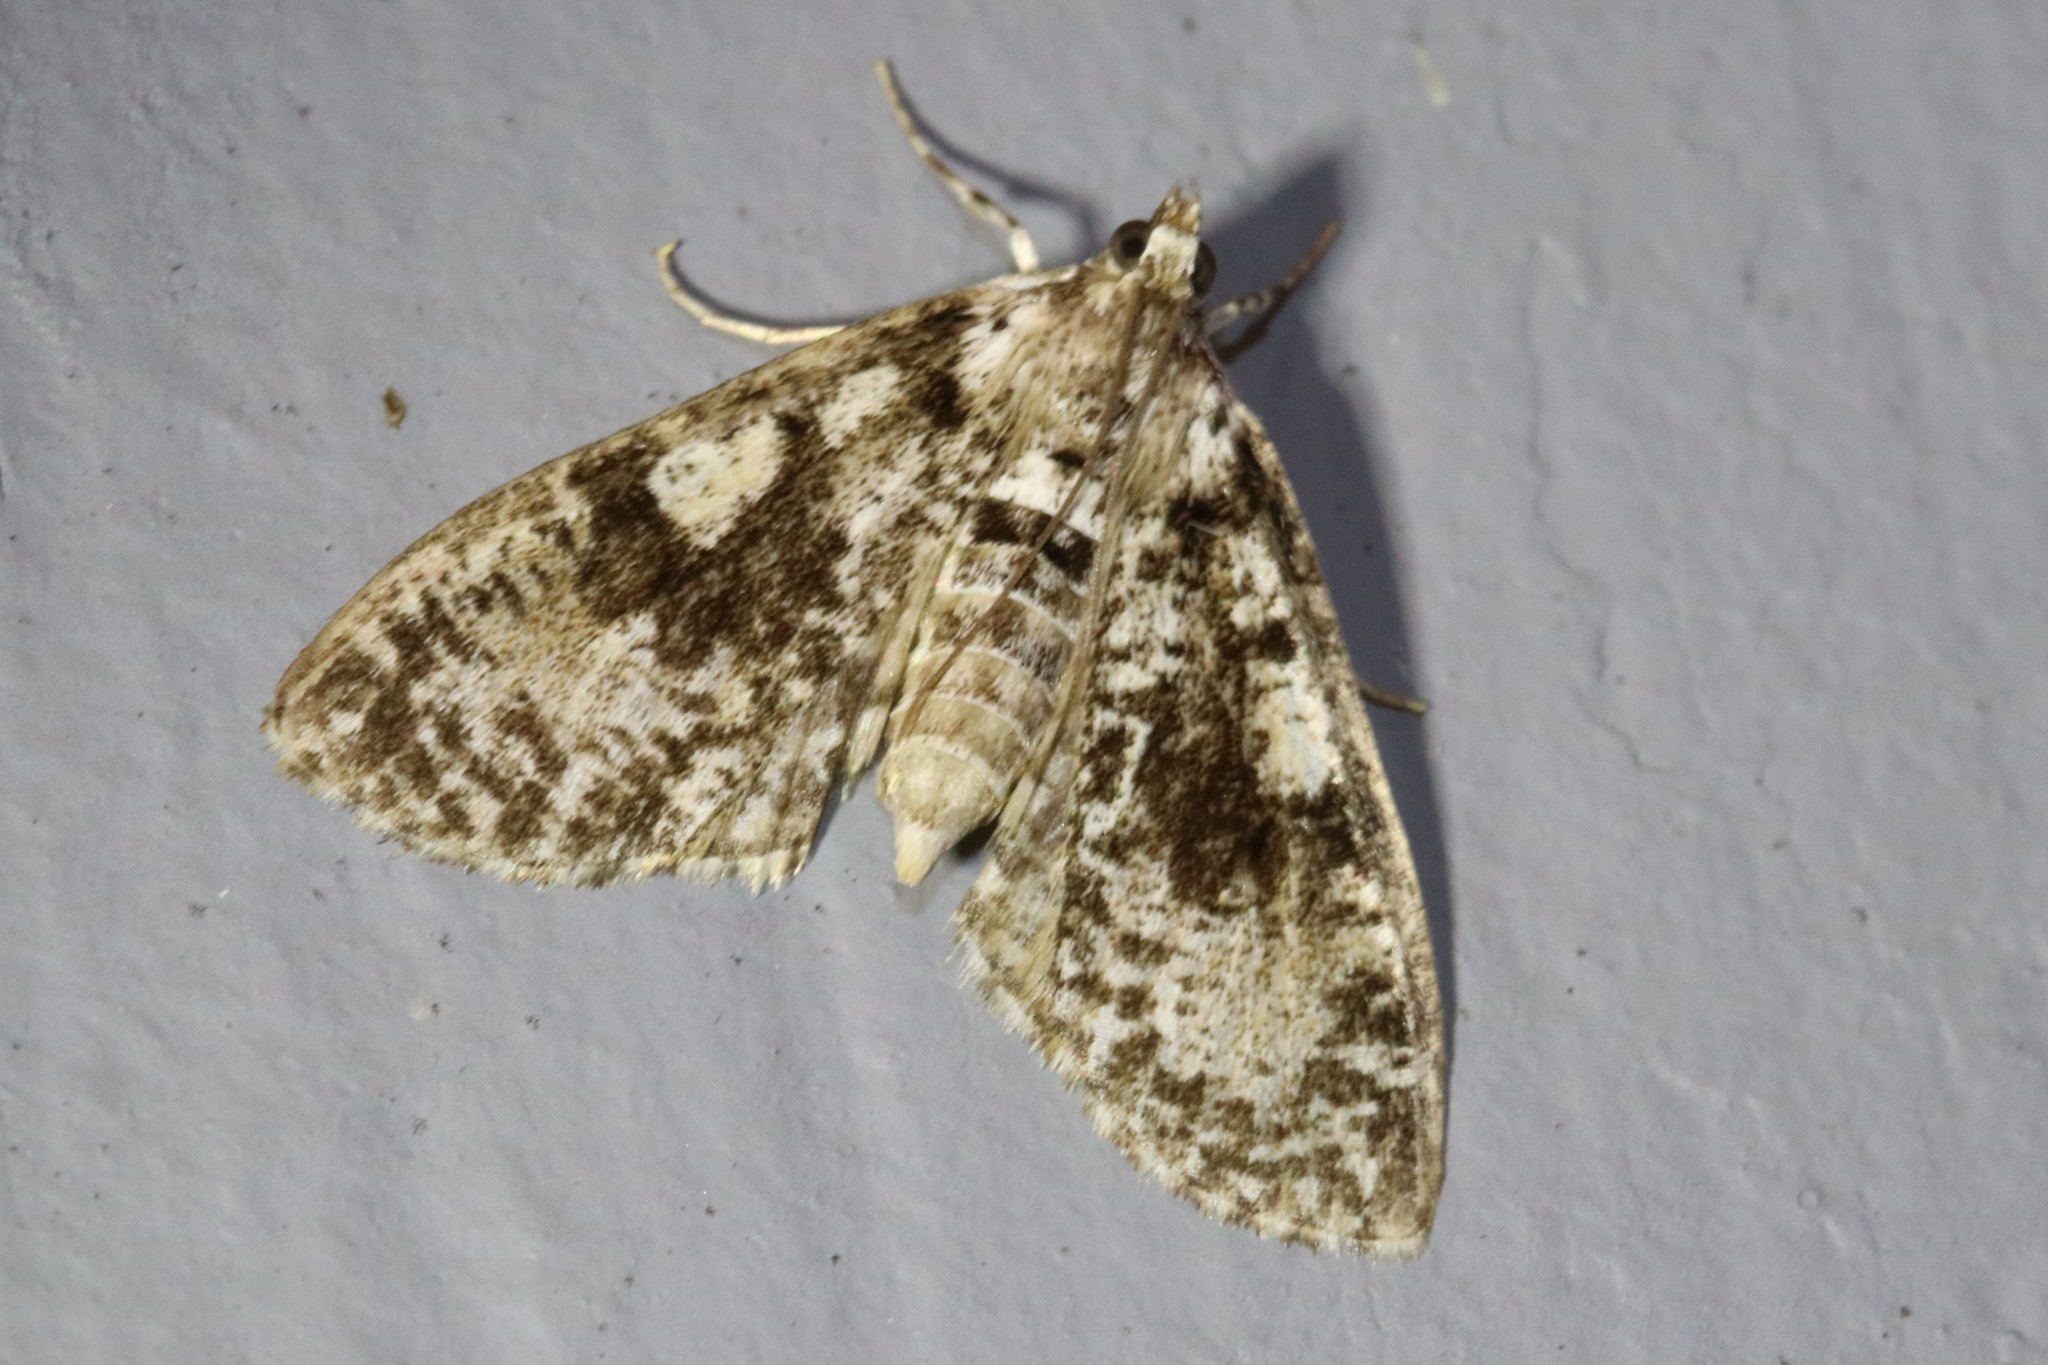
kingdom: Animalia
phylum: Arthropoda
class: Insecta
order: Lepidoptera
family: Crambidae
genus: Palpita
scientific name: Palpita magniferalis
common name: Splendid palpita moth
